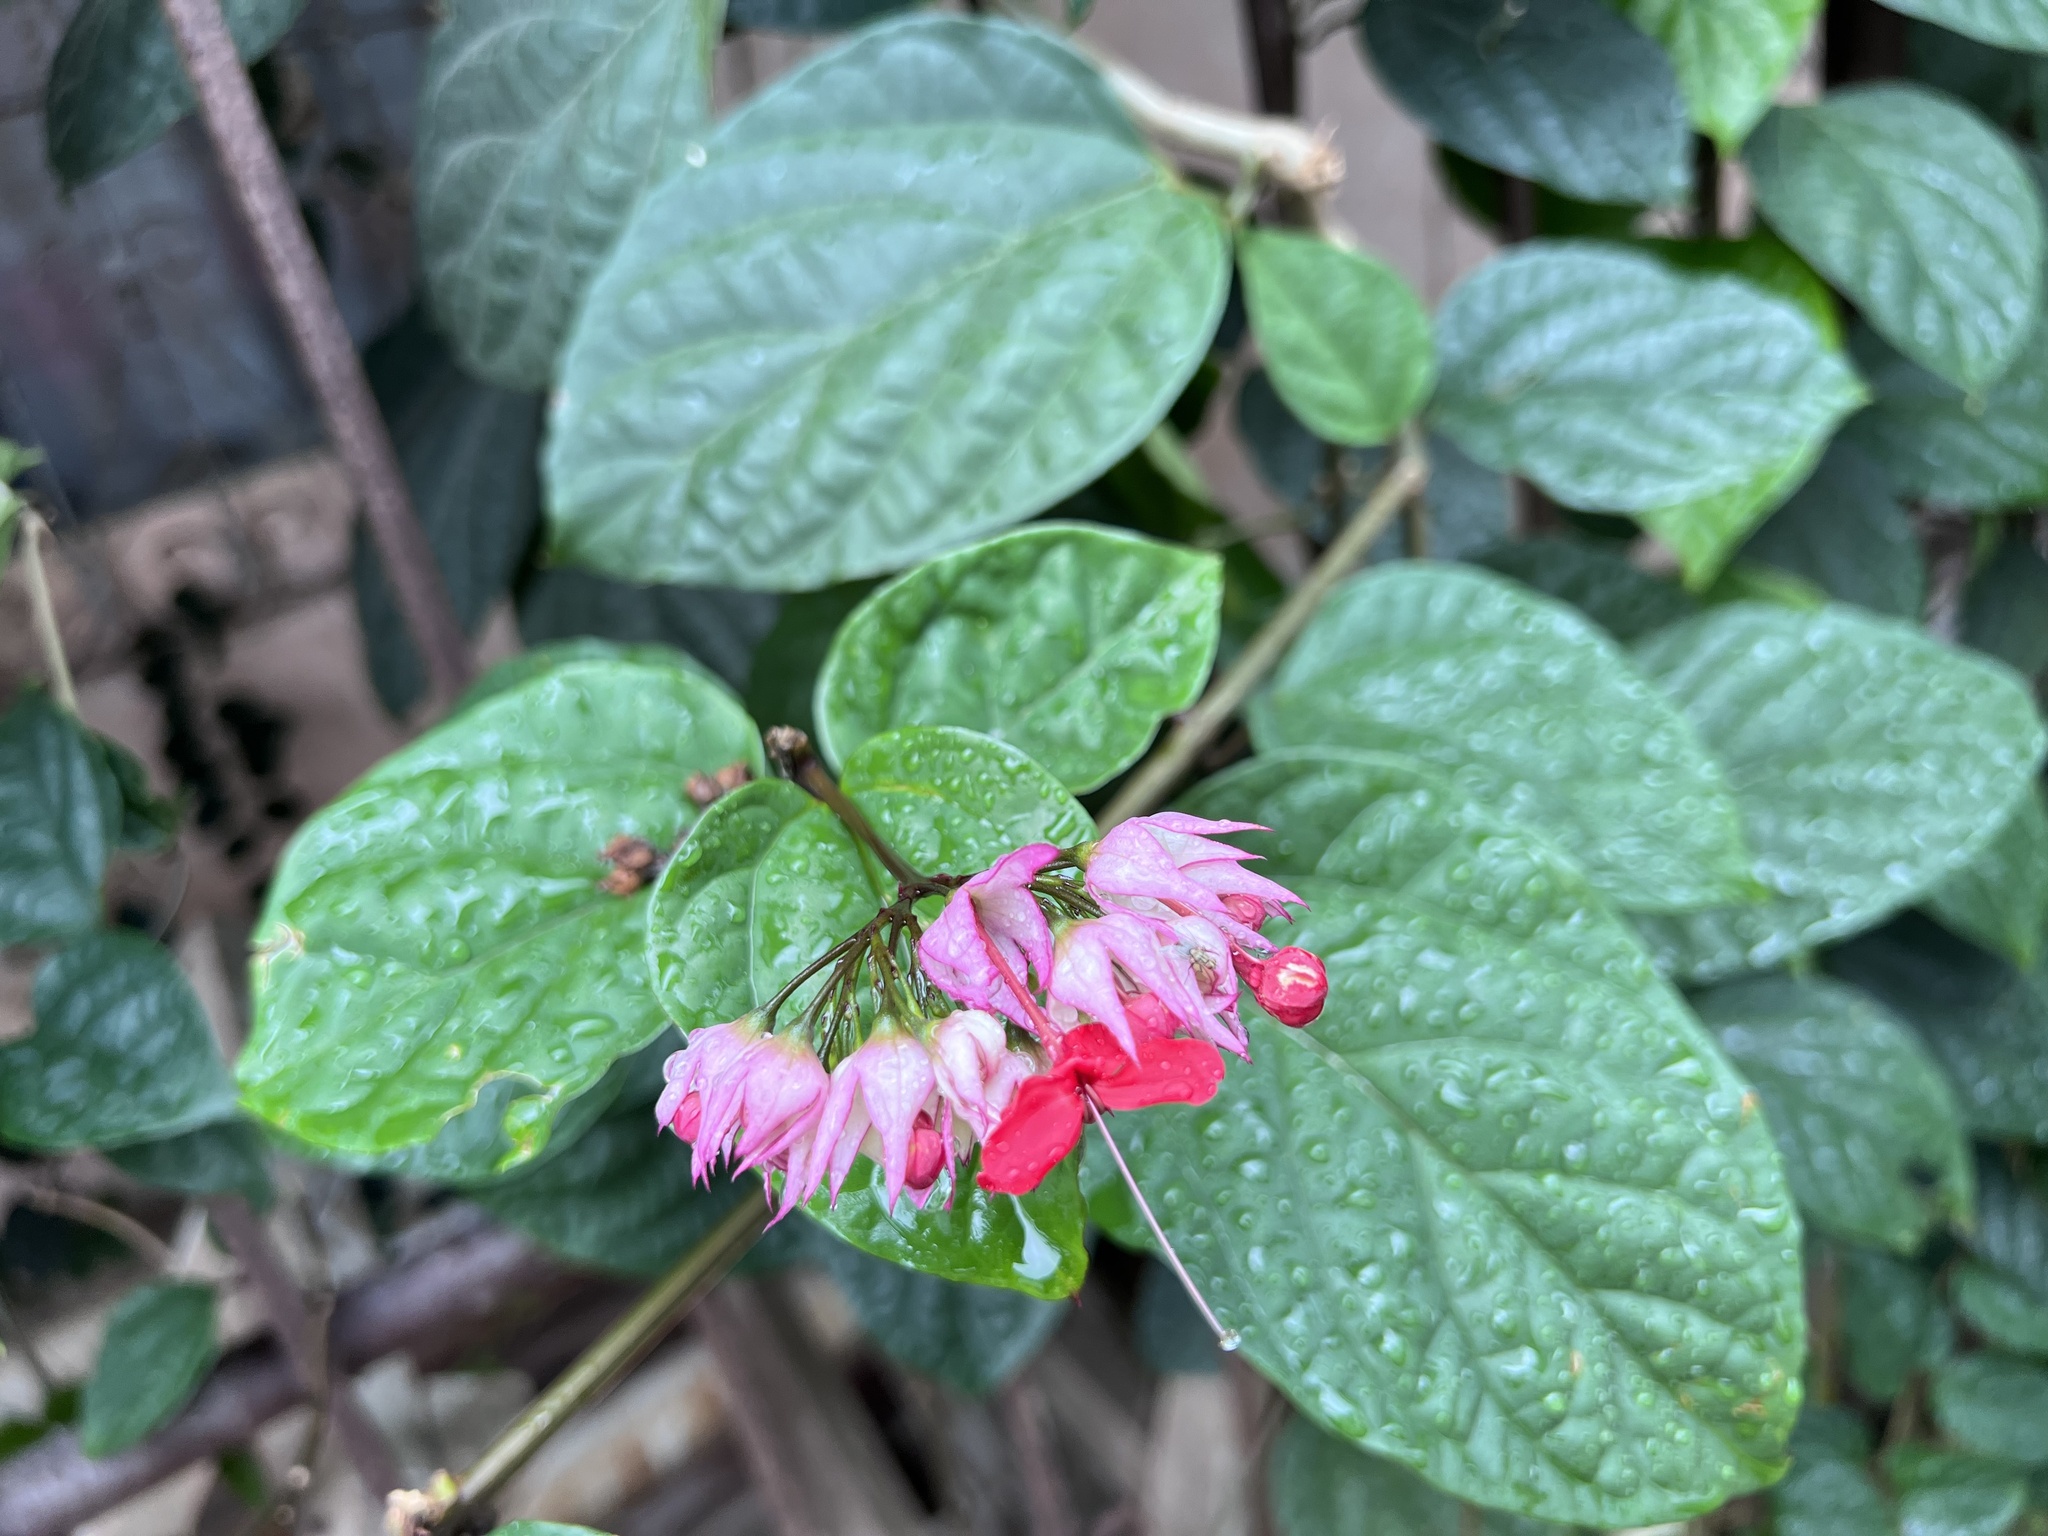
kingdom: Plantae
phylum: Tracheophyta
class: Magnoliopsida
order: Lamiales
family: Lamiaceae
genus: Clerodendrum
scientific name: Clerodendrum speciosum
